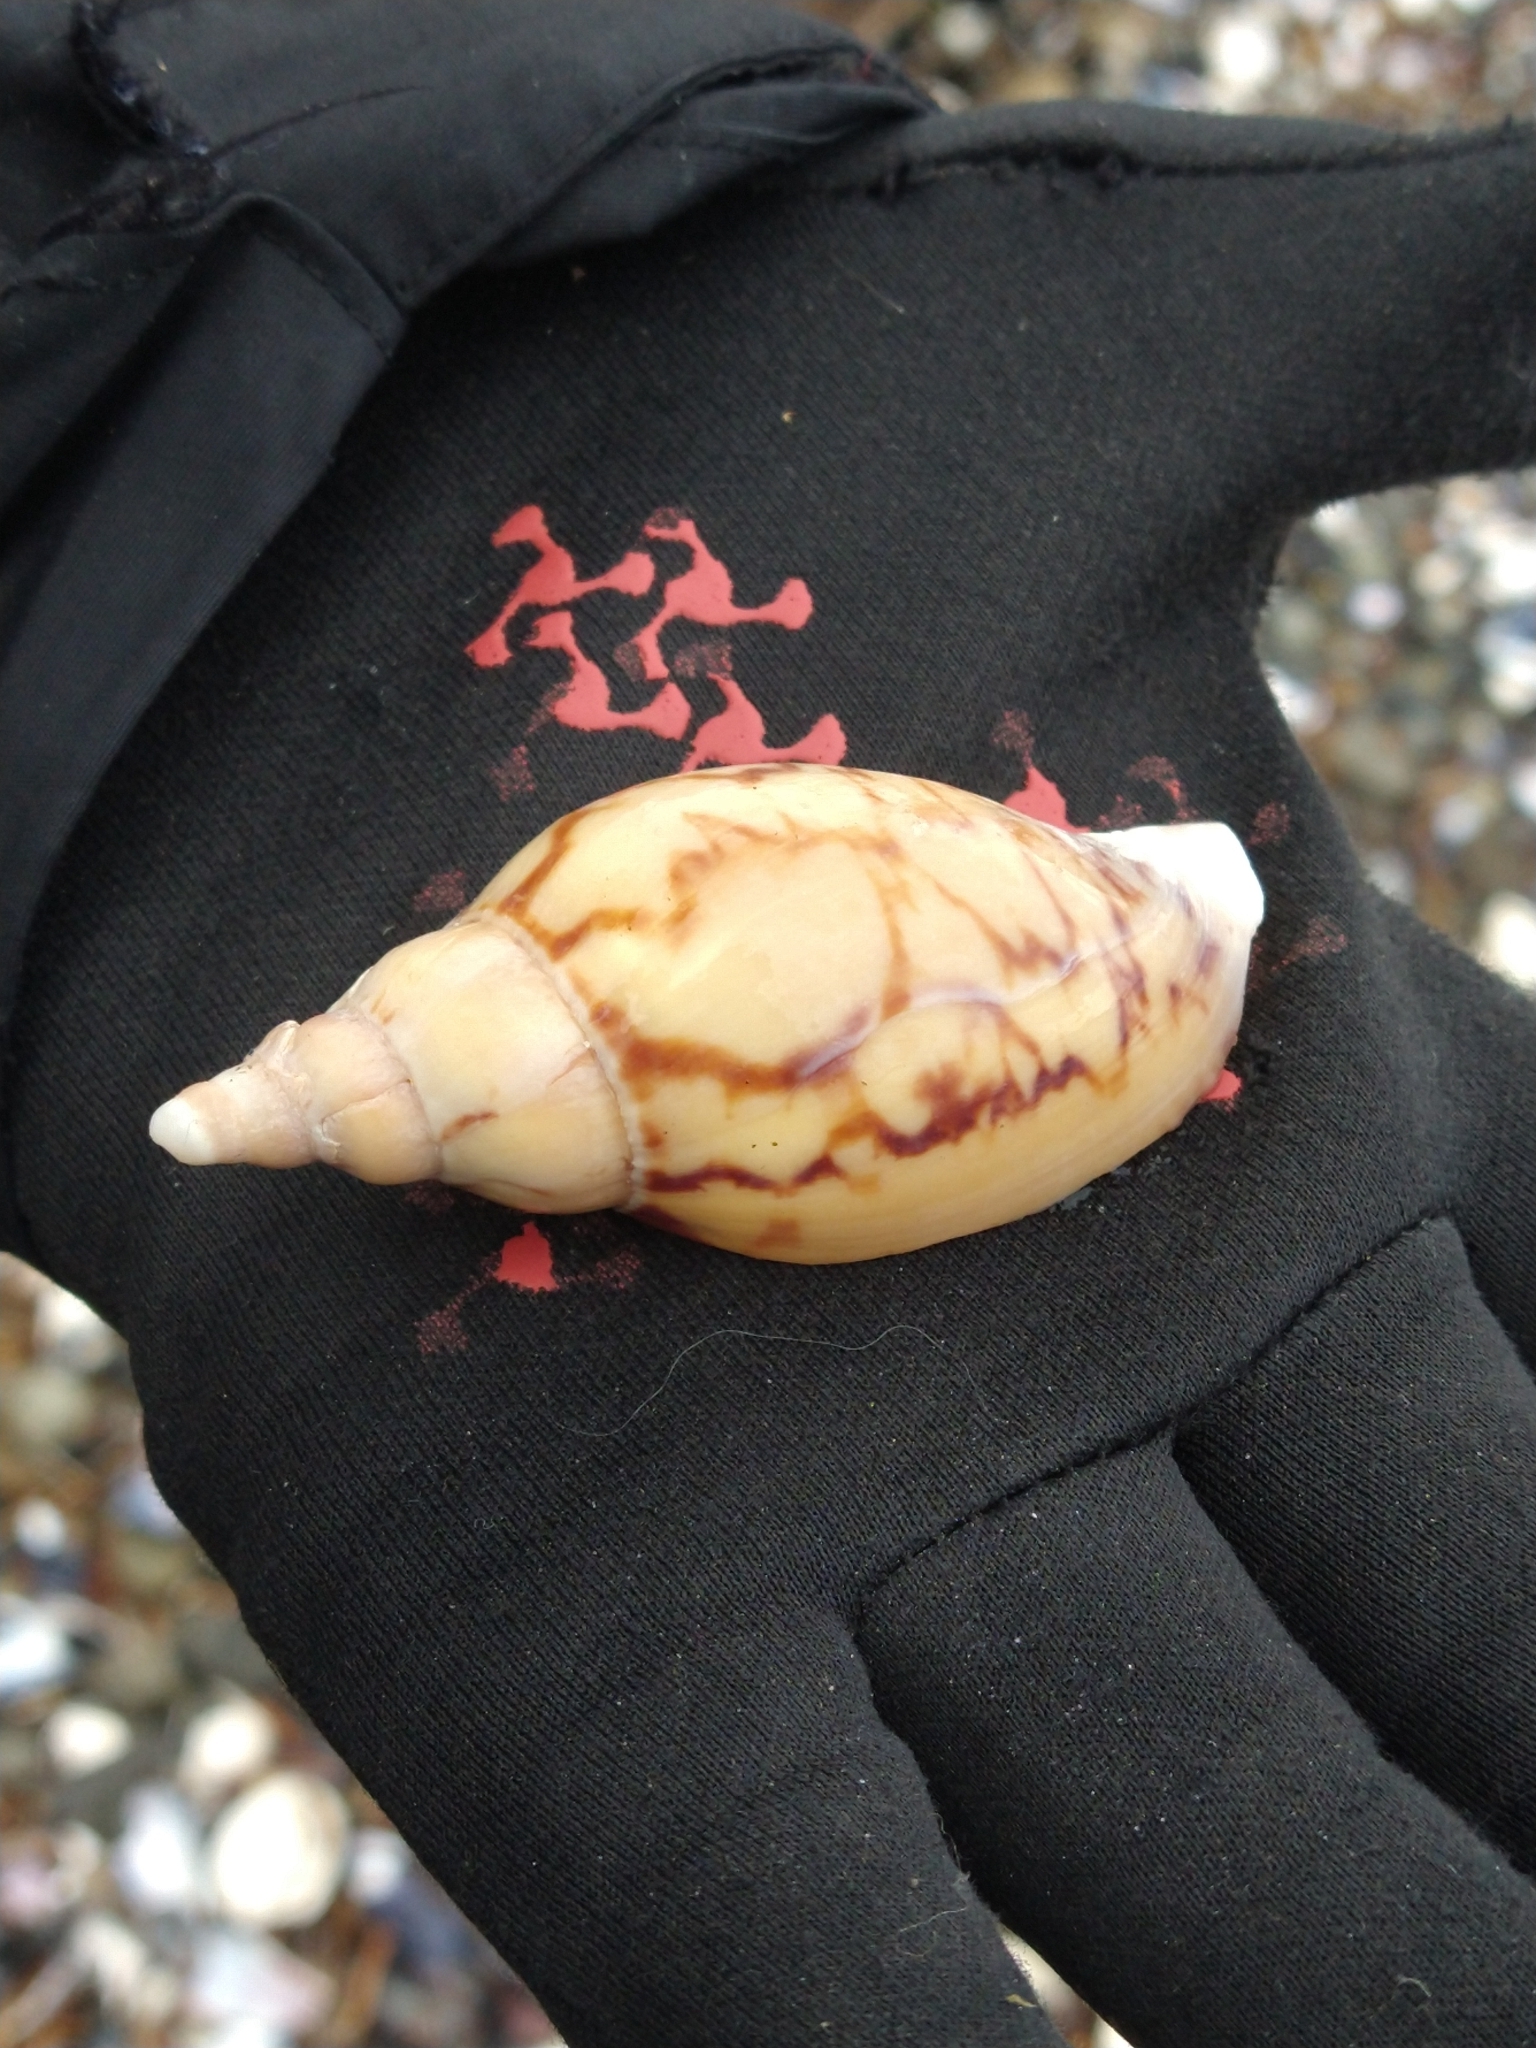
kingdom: Animalia
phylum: Mollusca
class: Gastropoda
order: Neogastropoda
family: Volutidae
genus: Adelomelon
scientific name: Adelomelon ancilla
